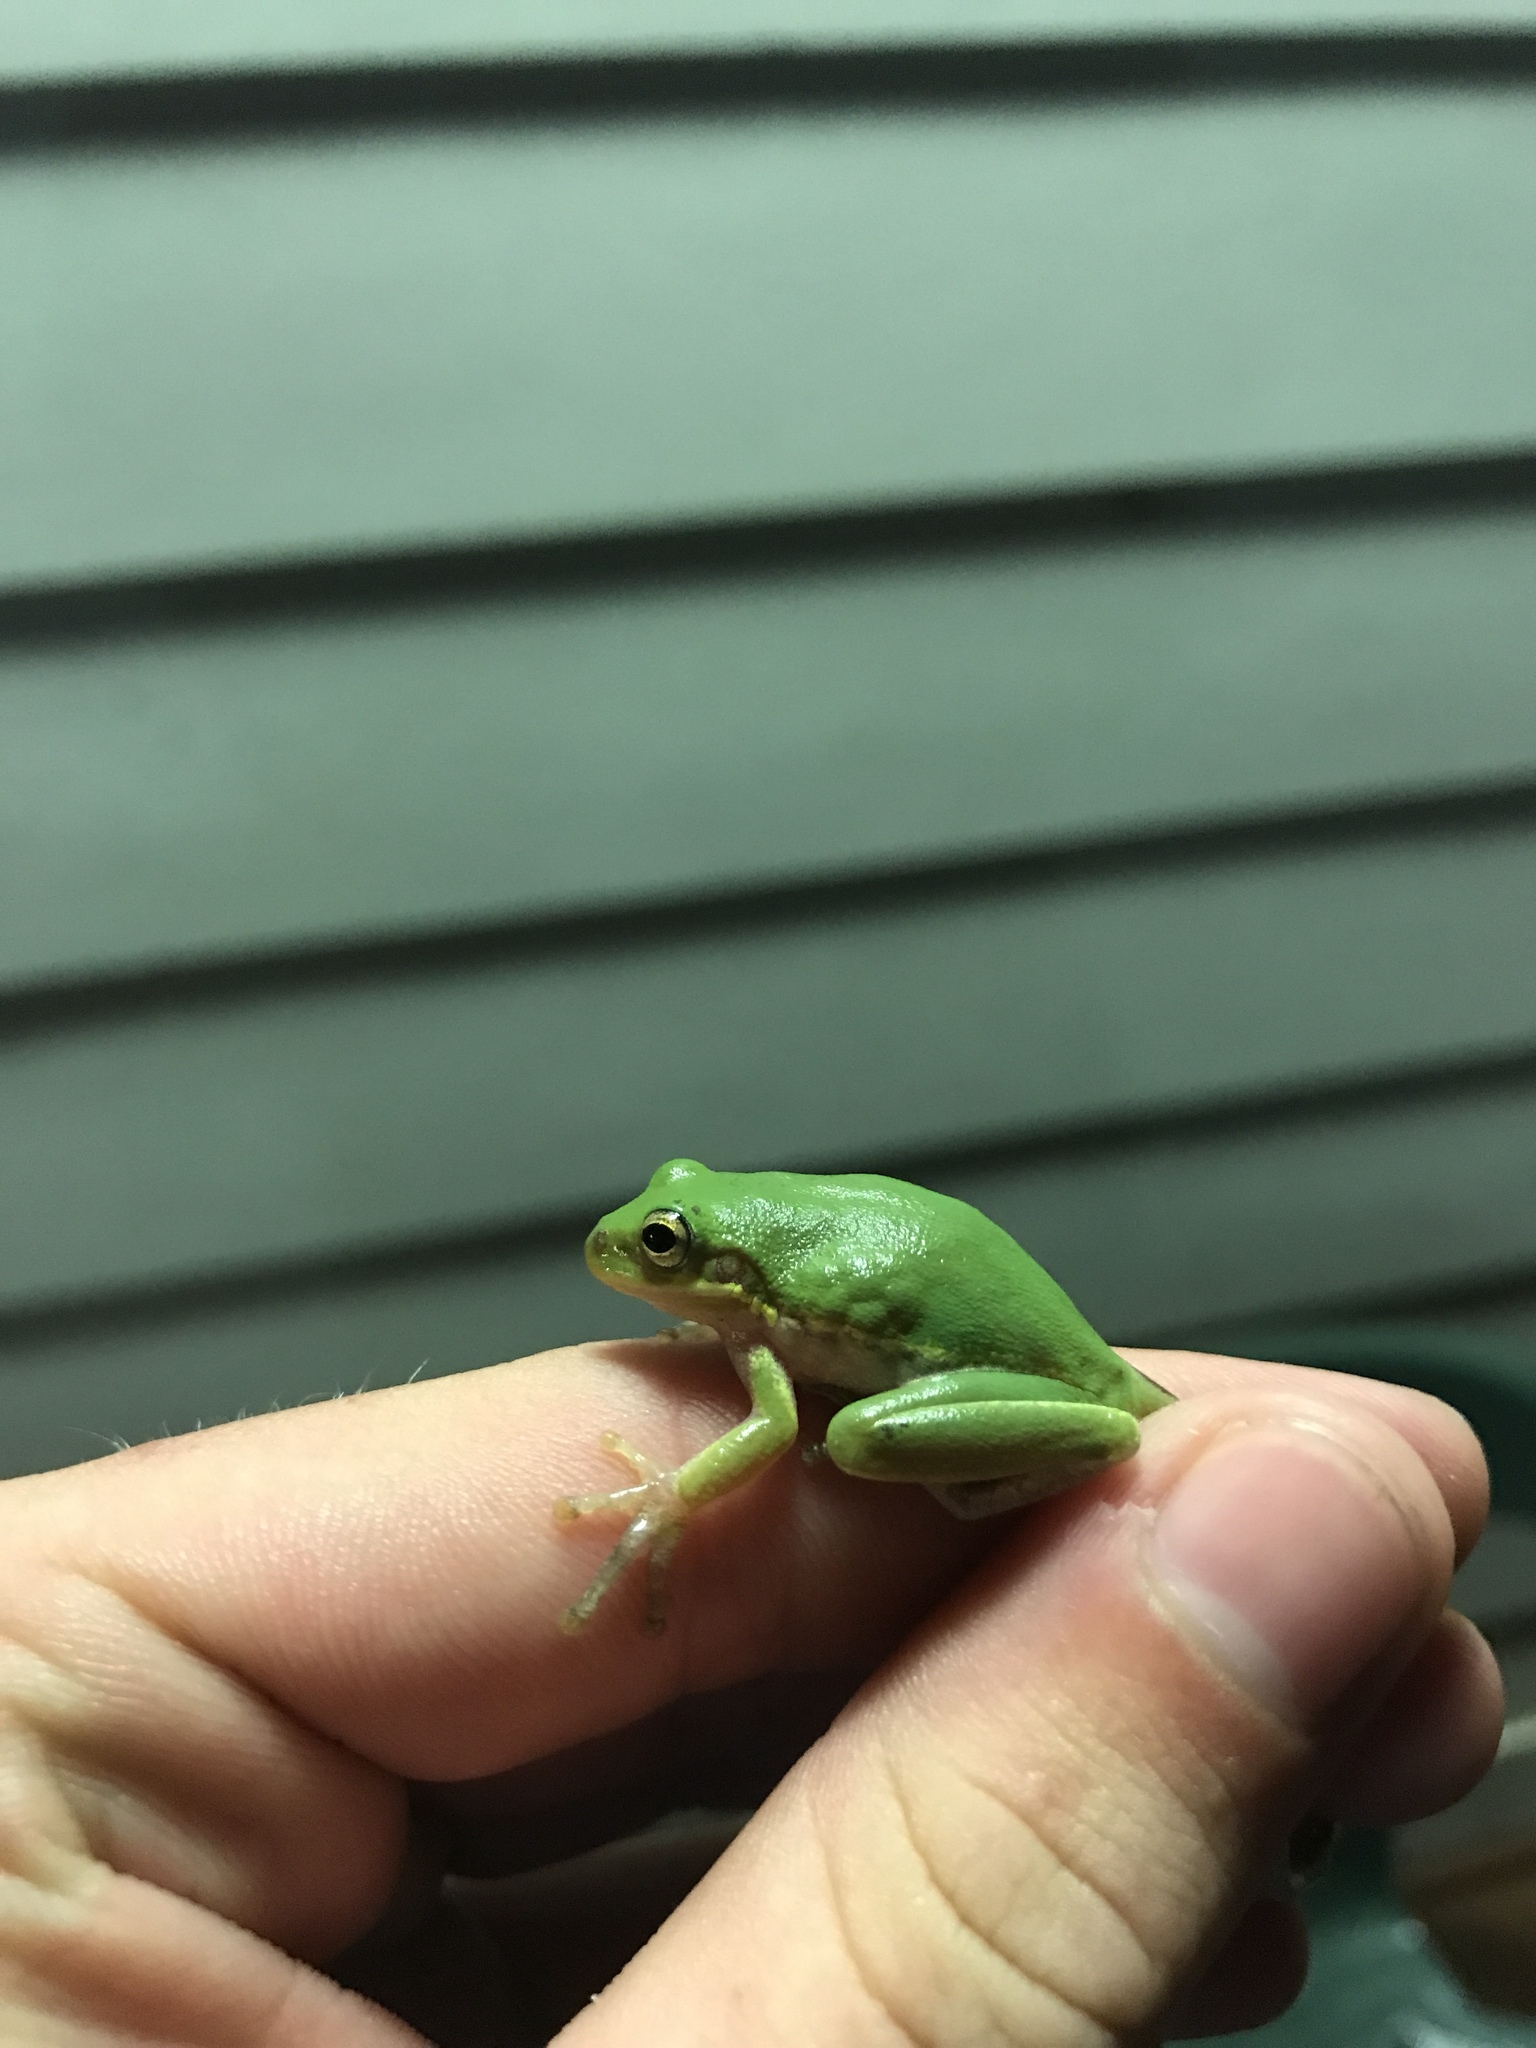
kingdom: Animalia
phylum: Chordata
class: Amphibia
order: Anura
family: Hylidae
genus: Dryophytes
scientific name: Dryophytes squirellus
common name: Squirrel treefrog
